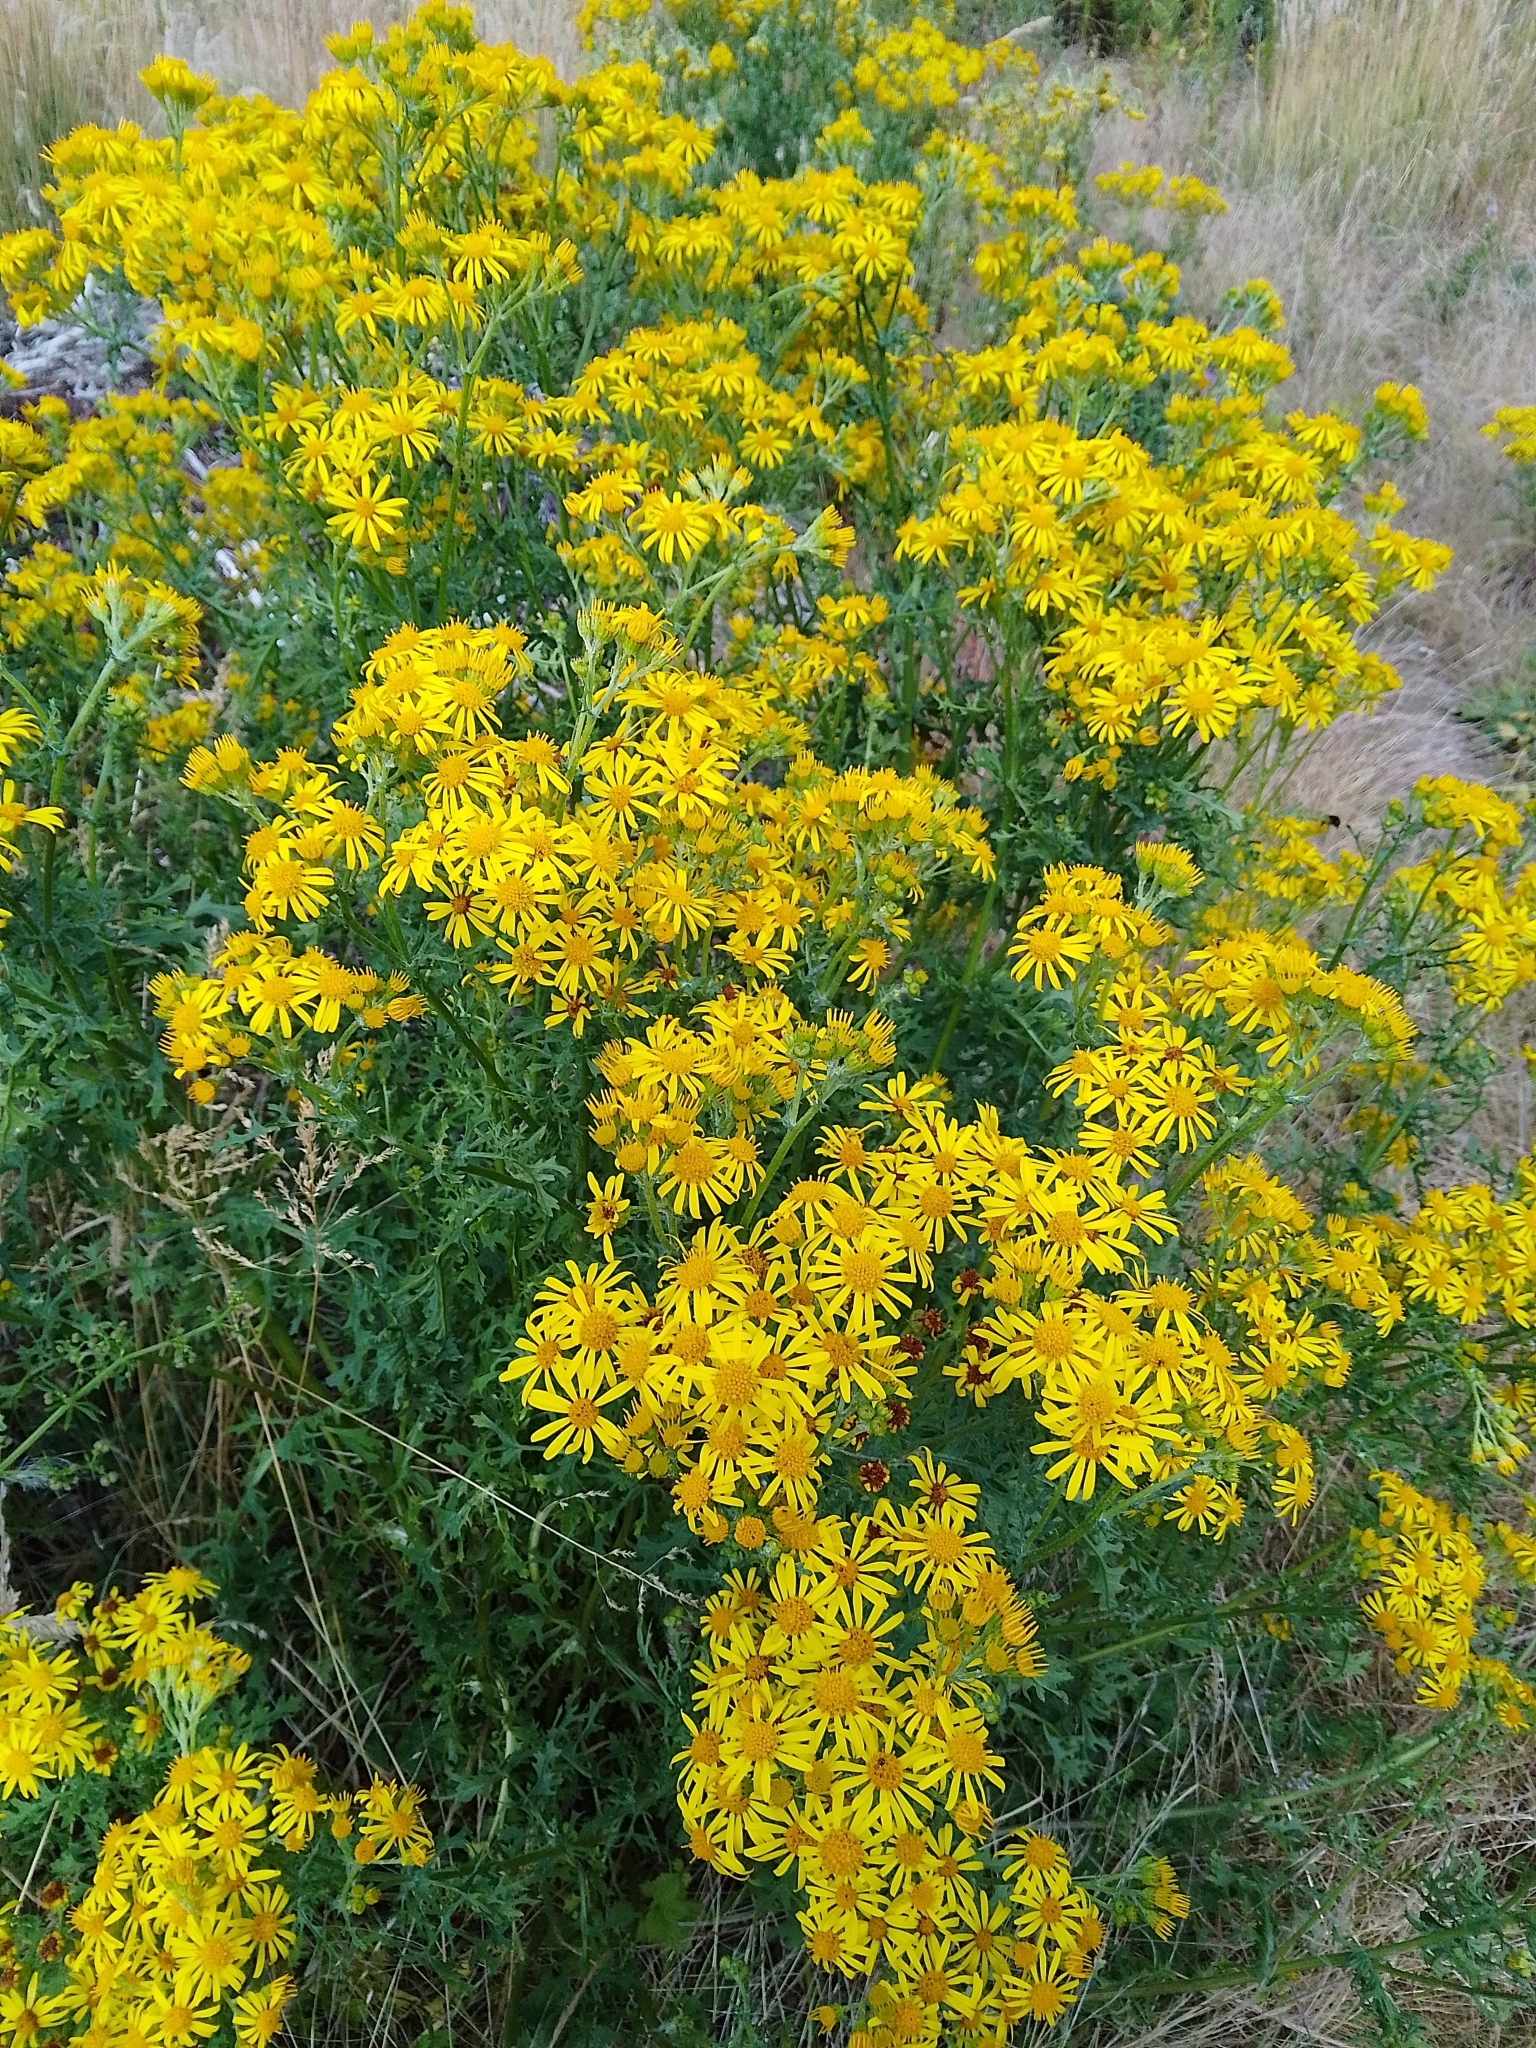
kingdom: Plantae
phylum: Tracheophyta
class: Magnoliopsida
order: Asterales
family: Asteraceae
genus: Jacobaea
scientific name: Jacobaea vulgaris
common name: Stinking willie
